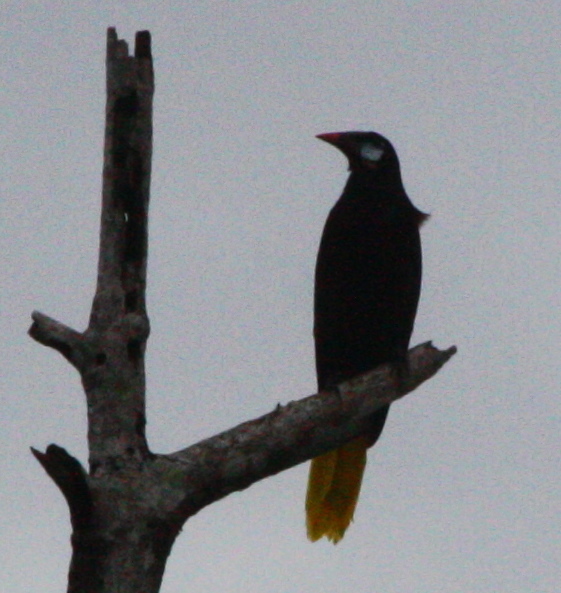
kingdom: Animalia
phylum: Chordata
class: Aves
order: Passeriformes
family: Icteridae
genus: Psarocolius
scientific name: Psarocolius montezuma
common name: Montezuma oropendola
